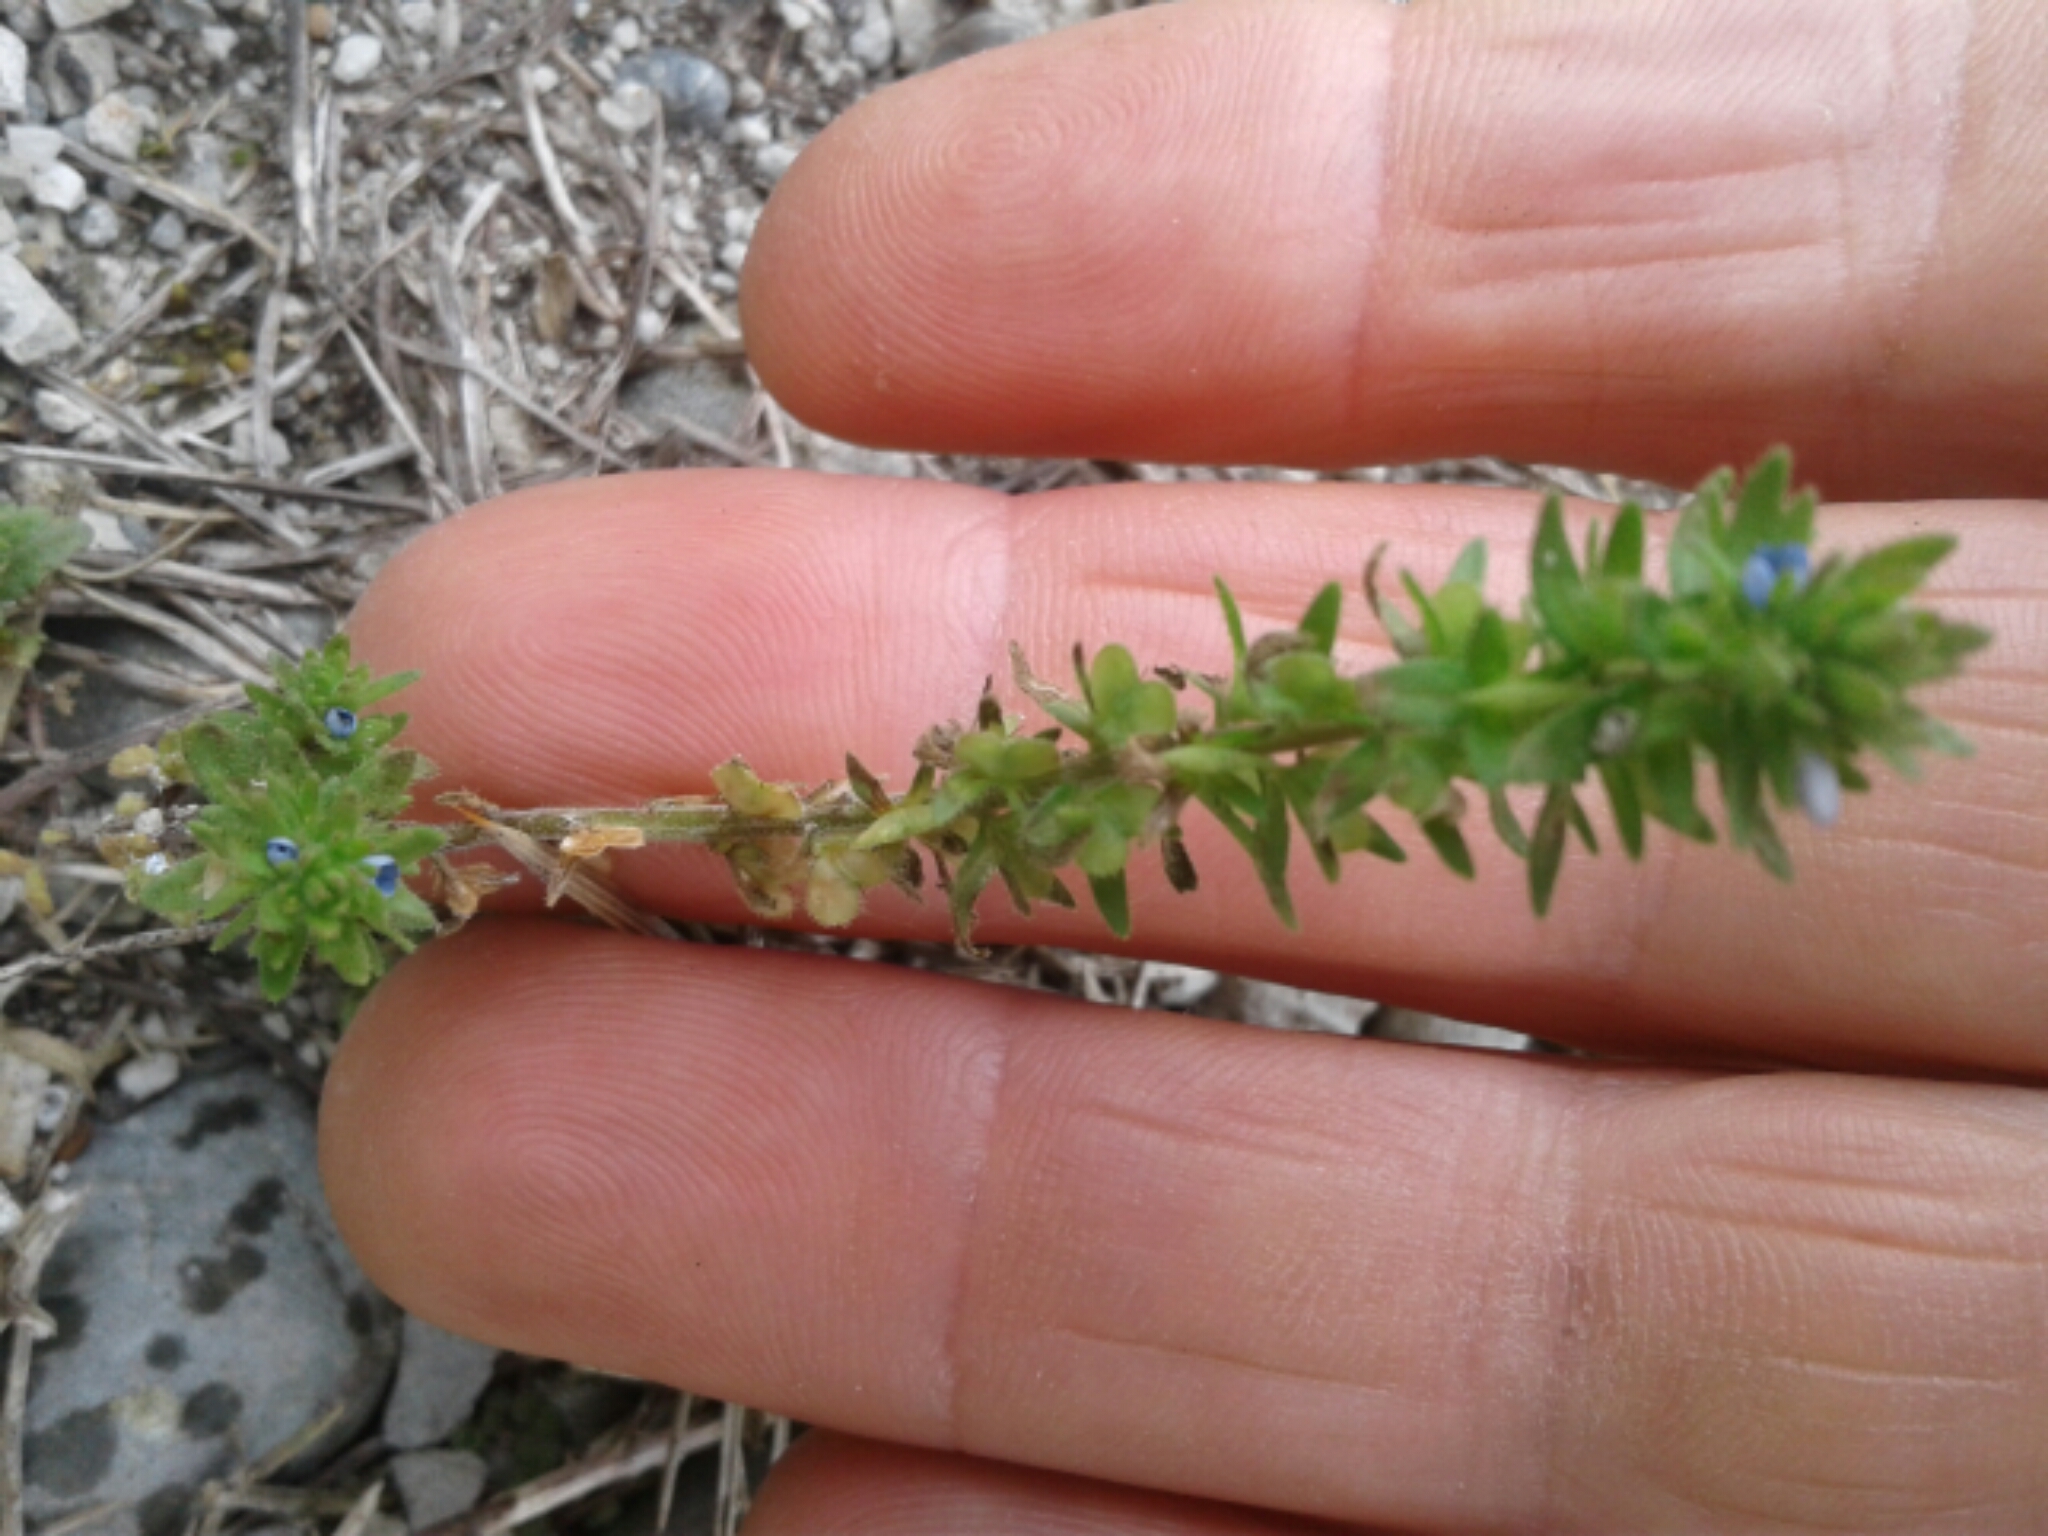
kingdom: Plantae
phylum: Tracheophyta
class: Magnoliopsida
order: Lamiales
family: Plantaginaceae
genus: Veronica
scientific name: Veronica arvensis
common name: Corn speedwell
